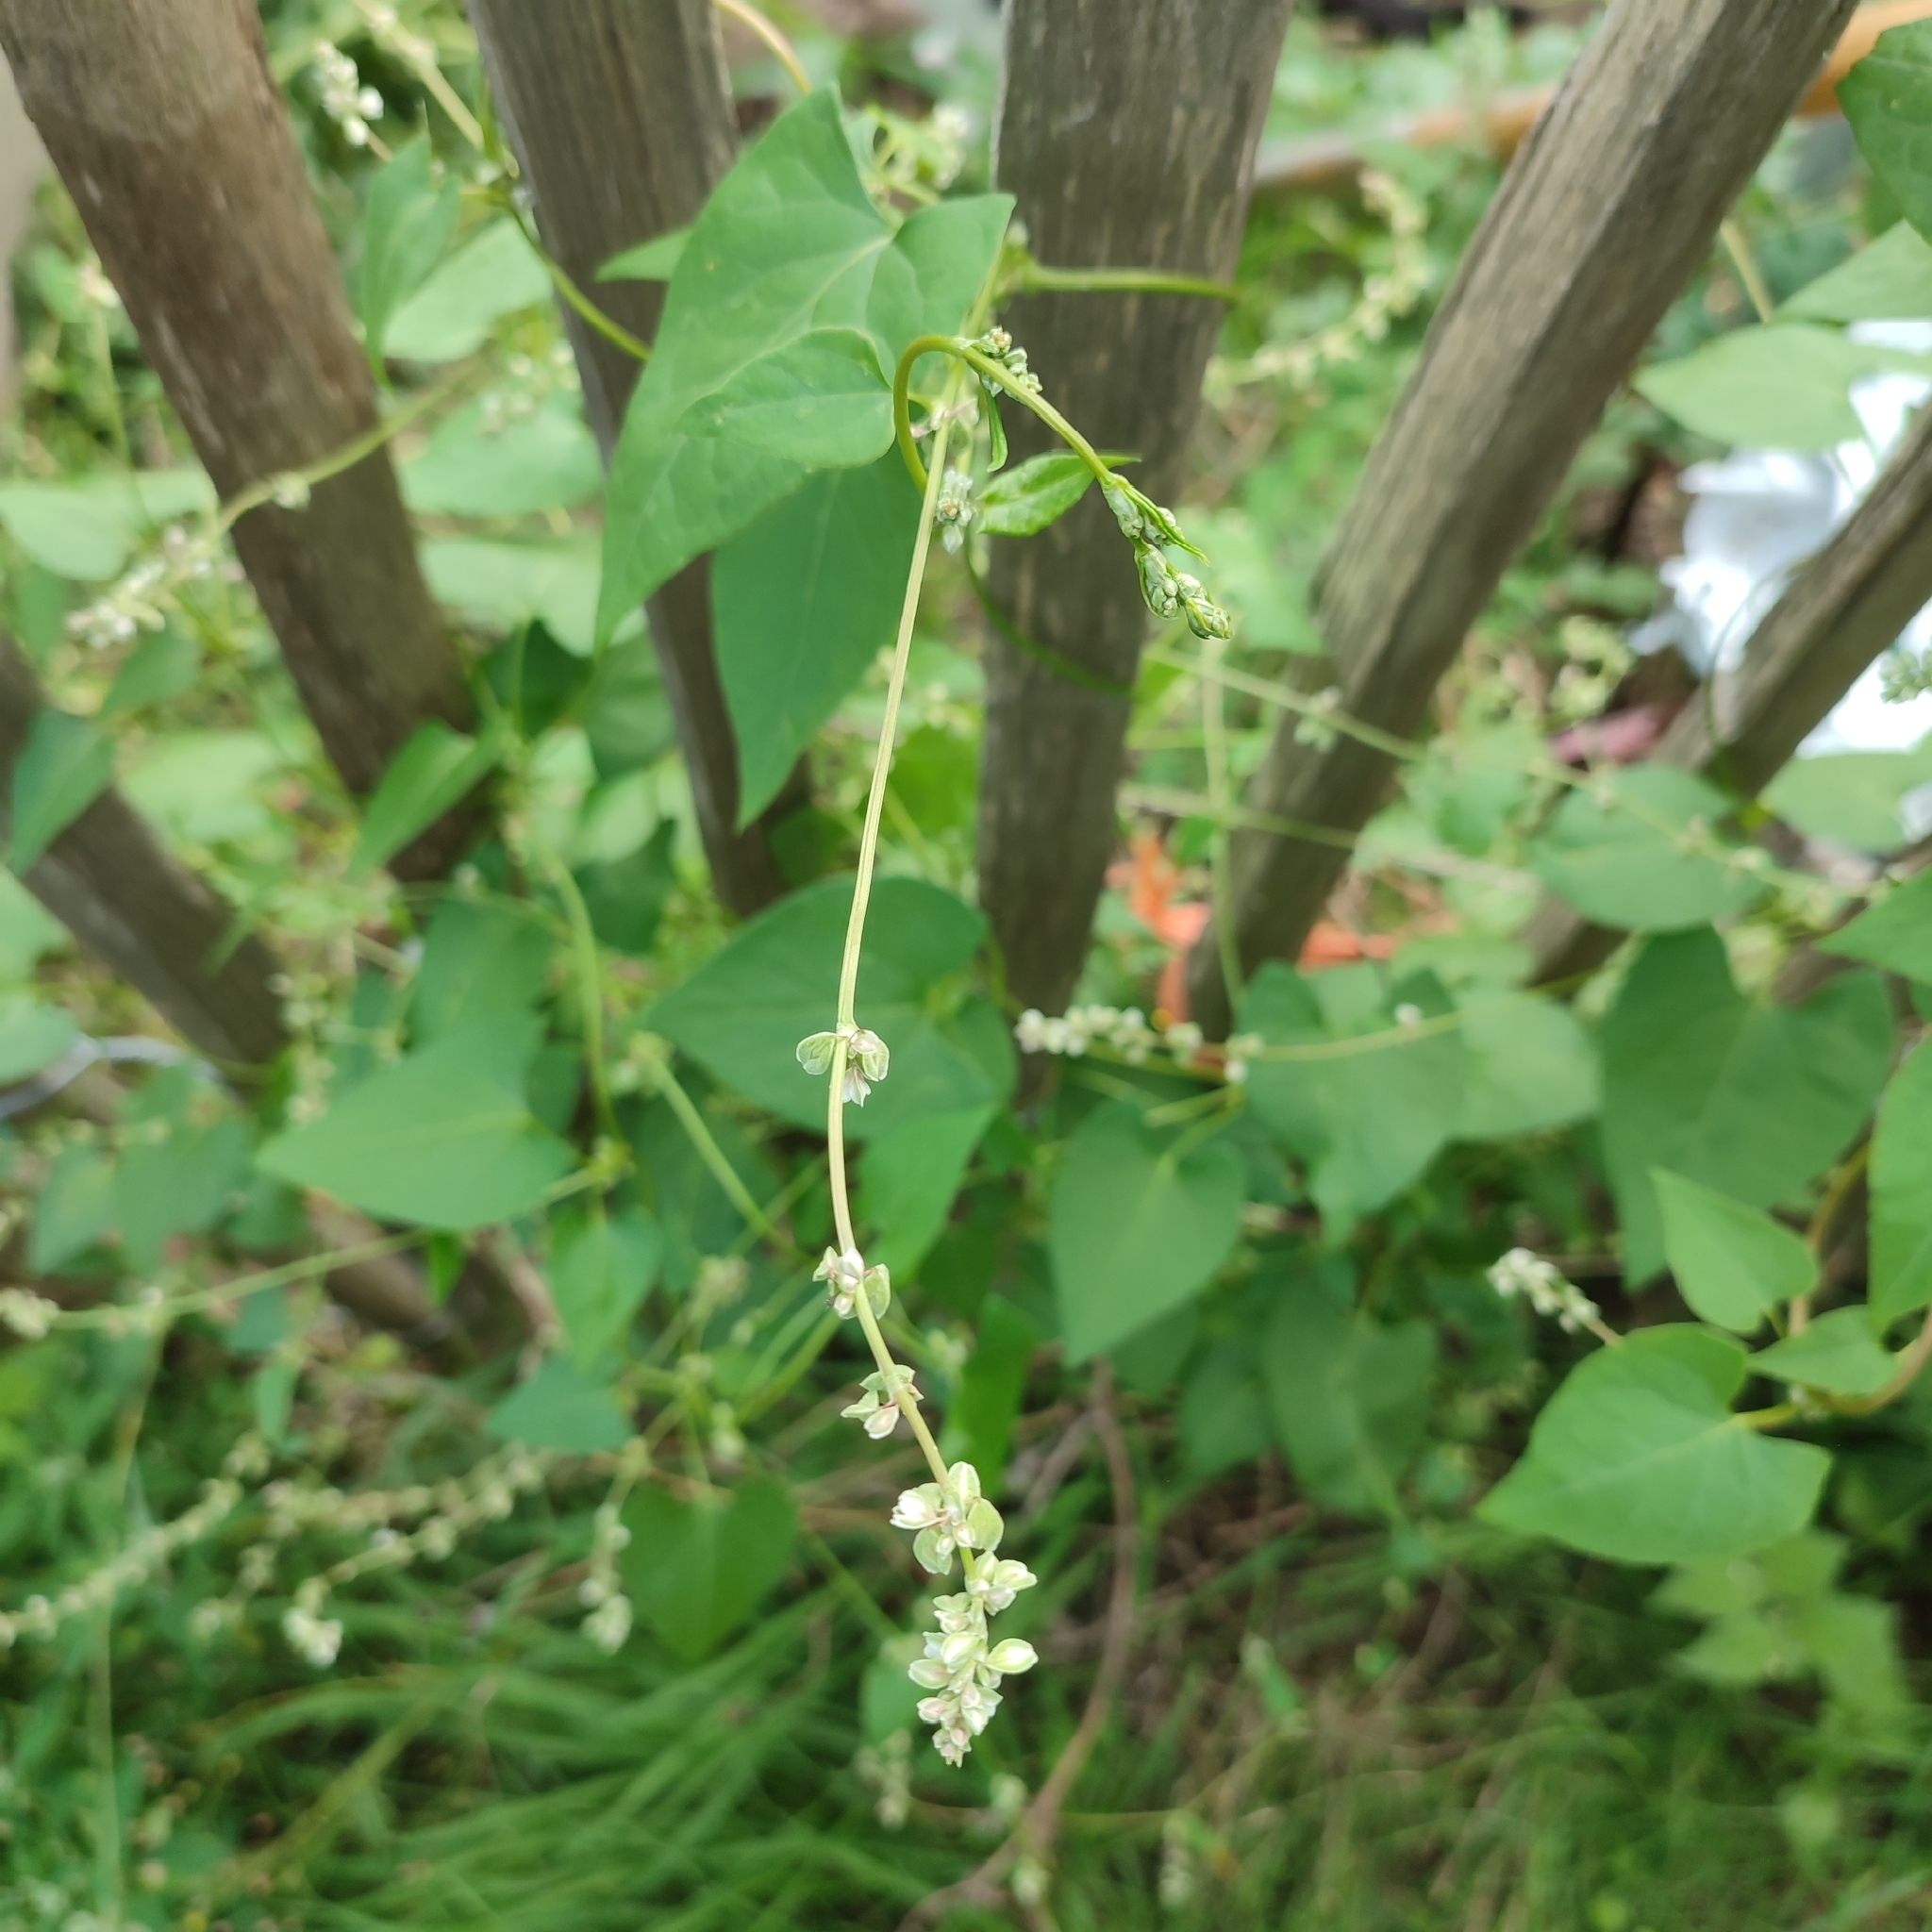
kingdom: Plantae
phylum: Tracheophyta
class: Magnoliopsida
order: Caryophyllales
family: Polygonaceae
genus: Fallopia
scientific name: Fallopia convolvulus
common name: Black bindweed
